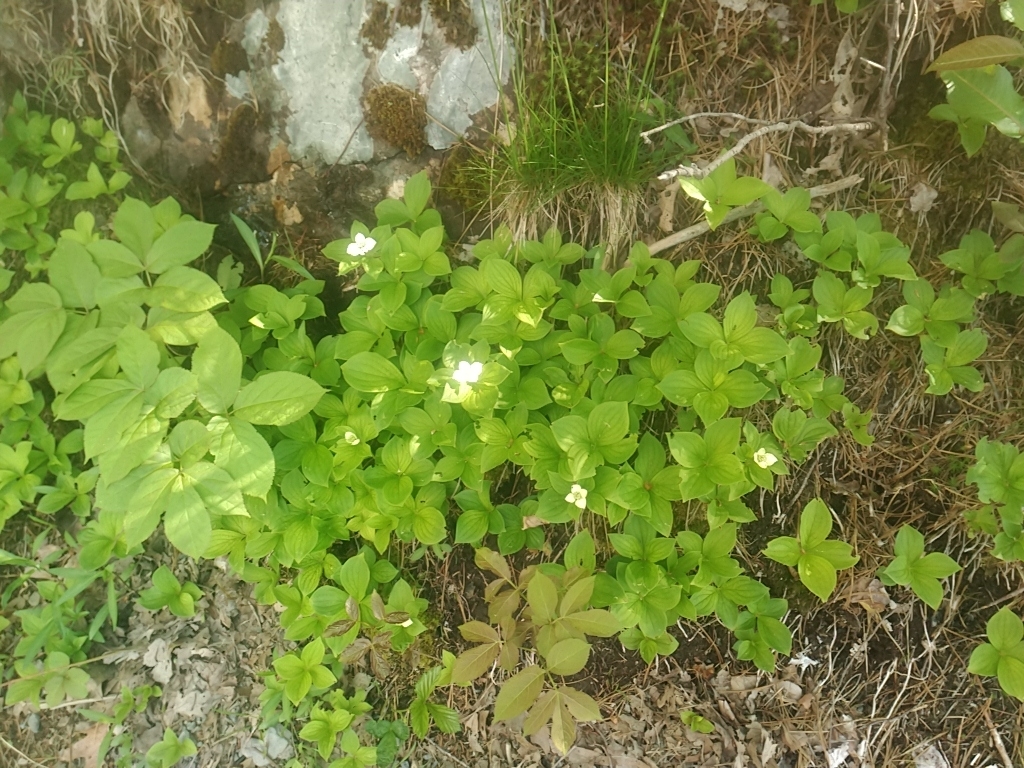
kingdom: Plantae
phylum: Tracheophyta
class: Magnoliopsida
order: Cornales
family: Cornaceae
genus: Cornus
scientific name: Cornus canadensis
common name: Creeping dogwood
